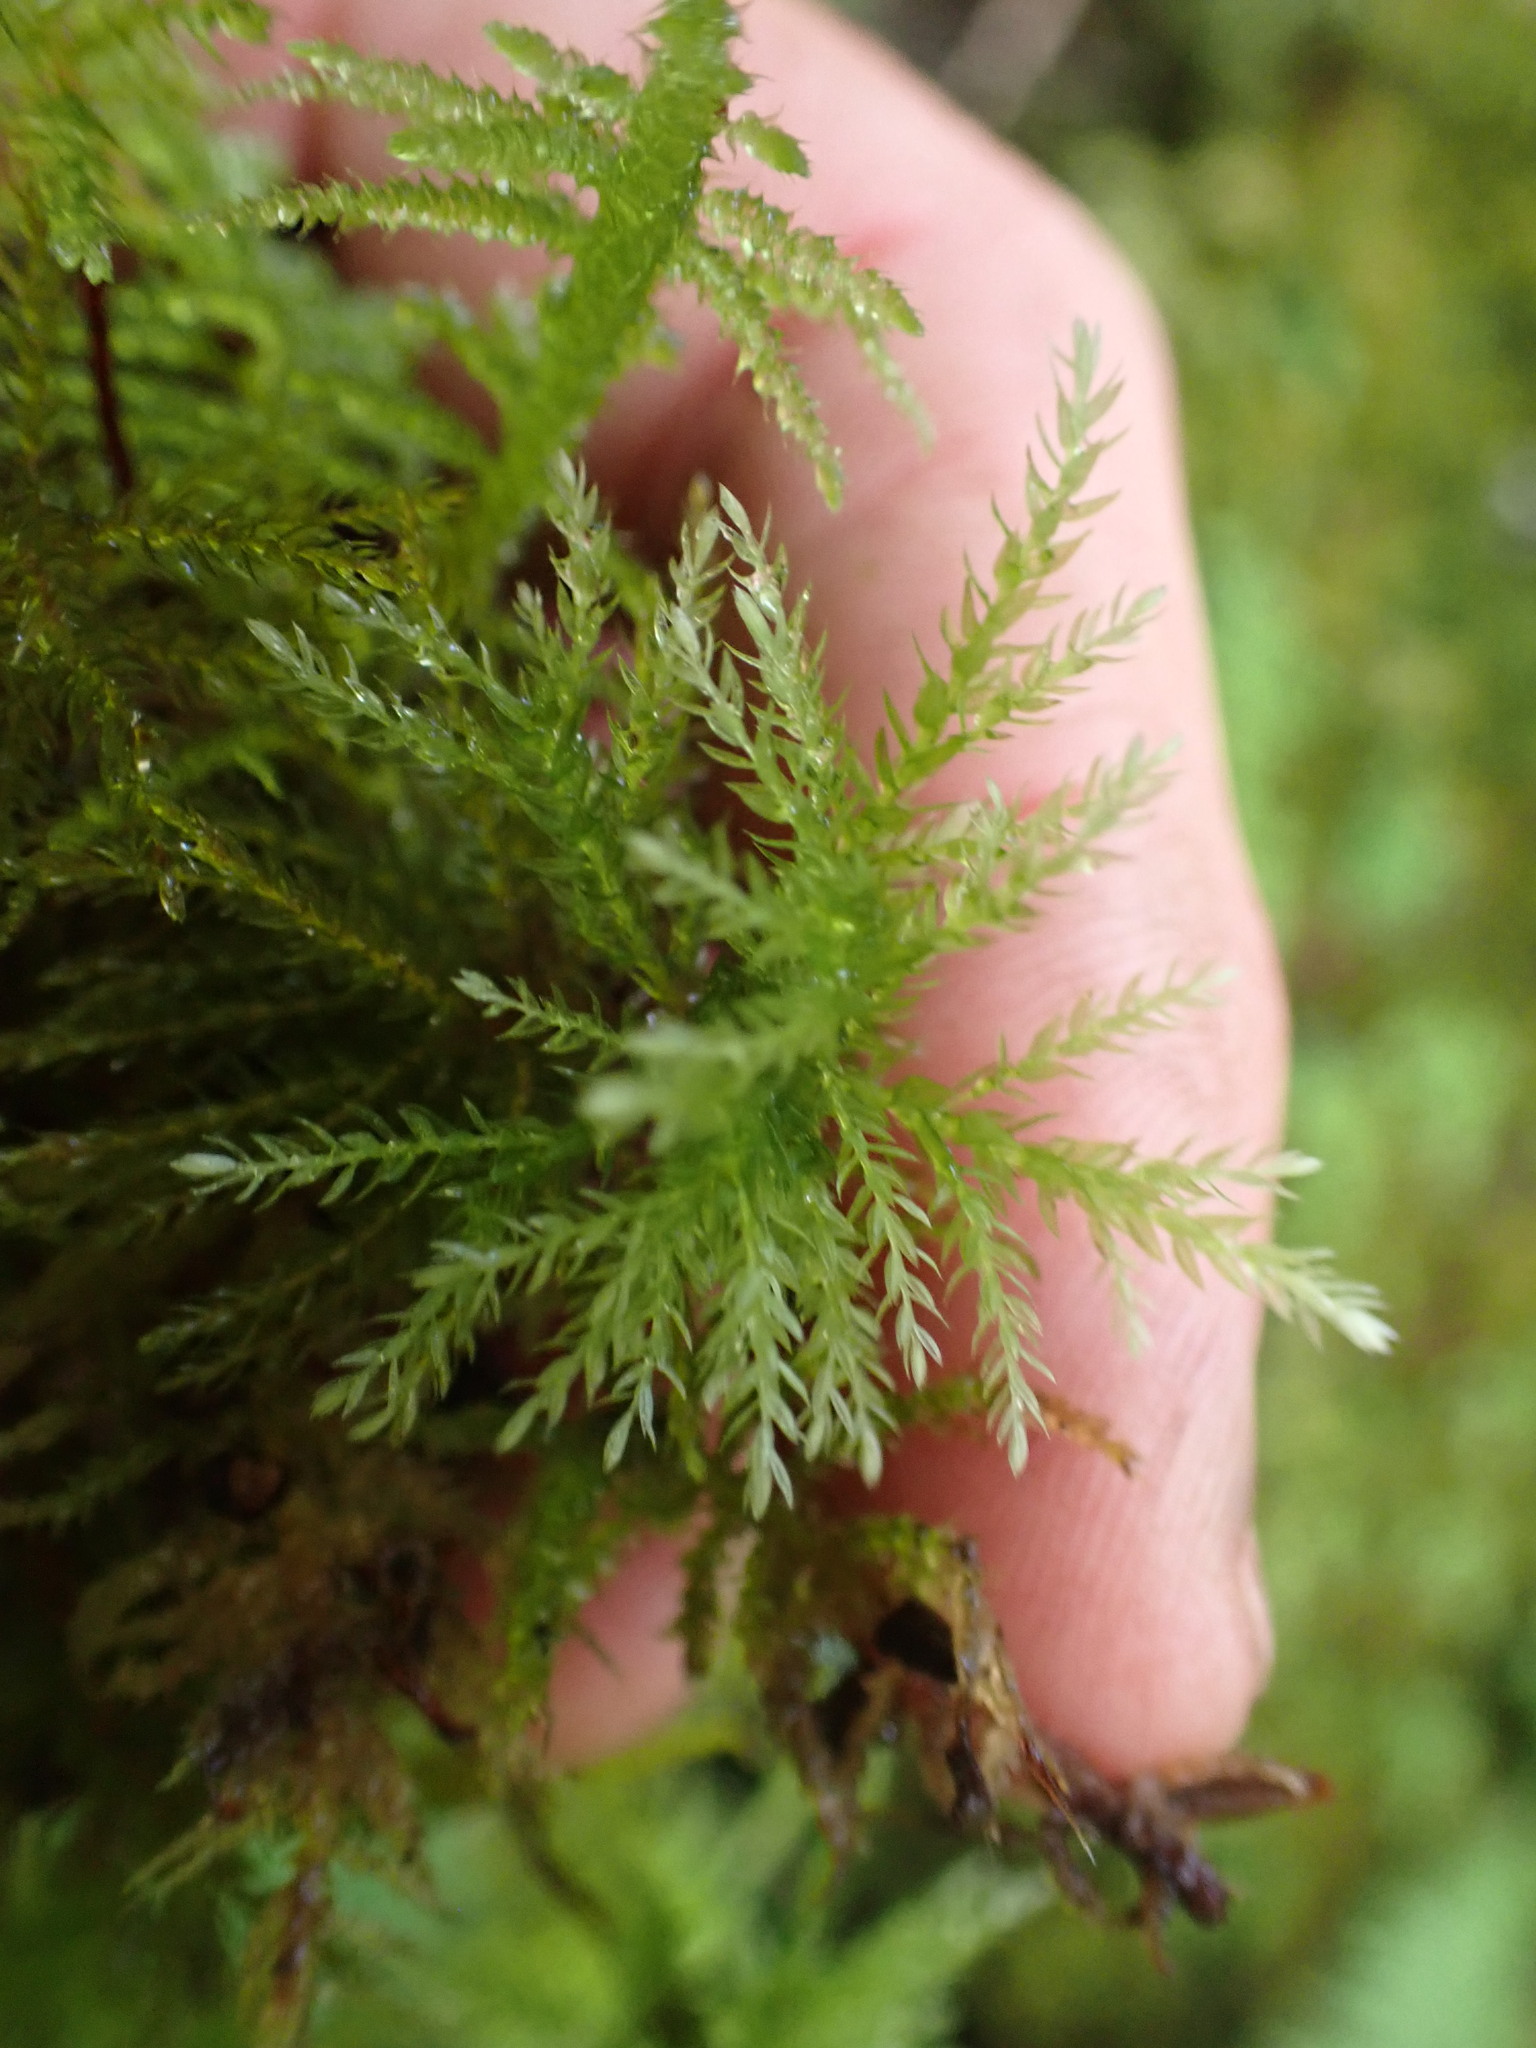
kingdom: Plantae
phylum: Bryophyta
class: Bryopsida
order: Bryales
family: Mniaceae
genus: Leucolepis
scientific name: Leucolepis acanthoneura
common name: Leucolepis umbrella moss
